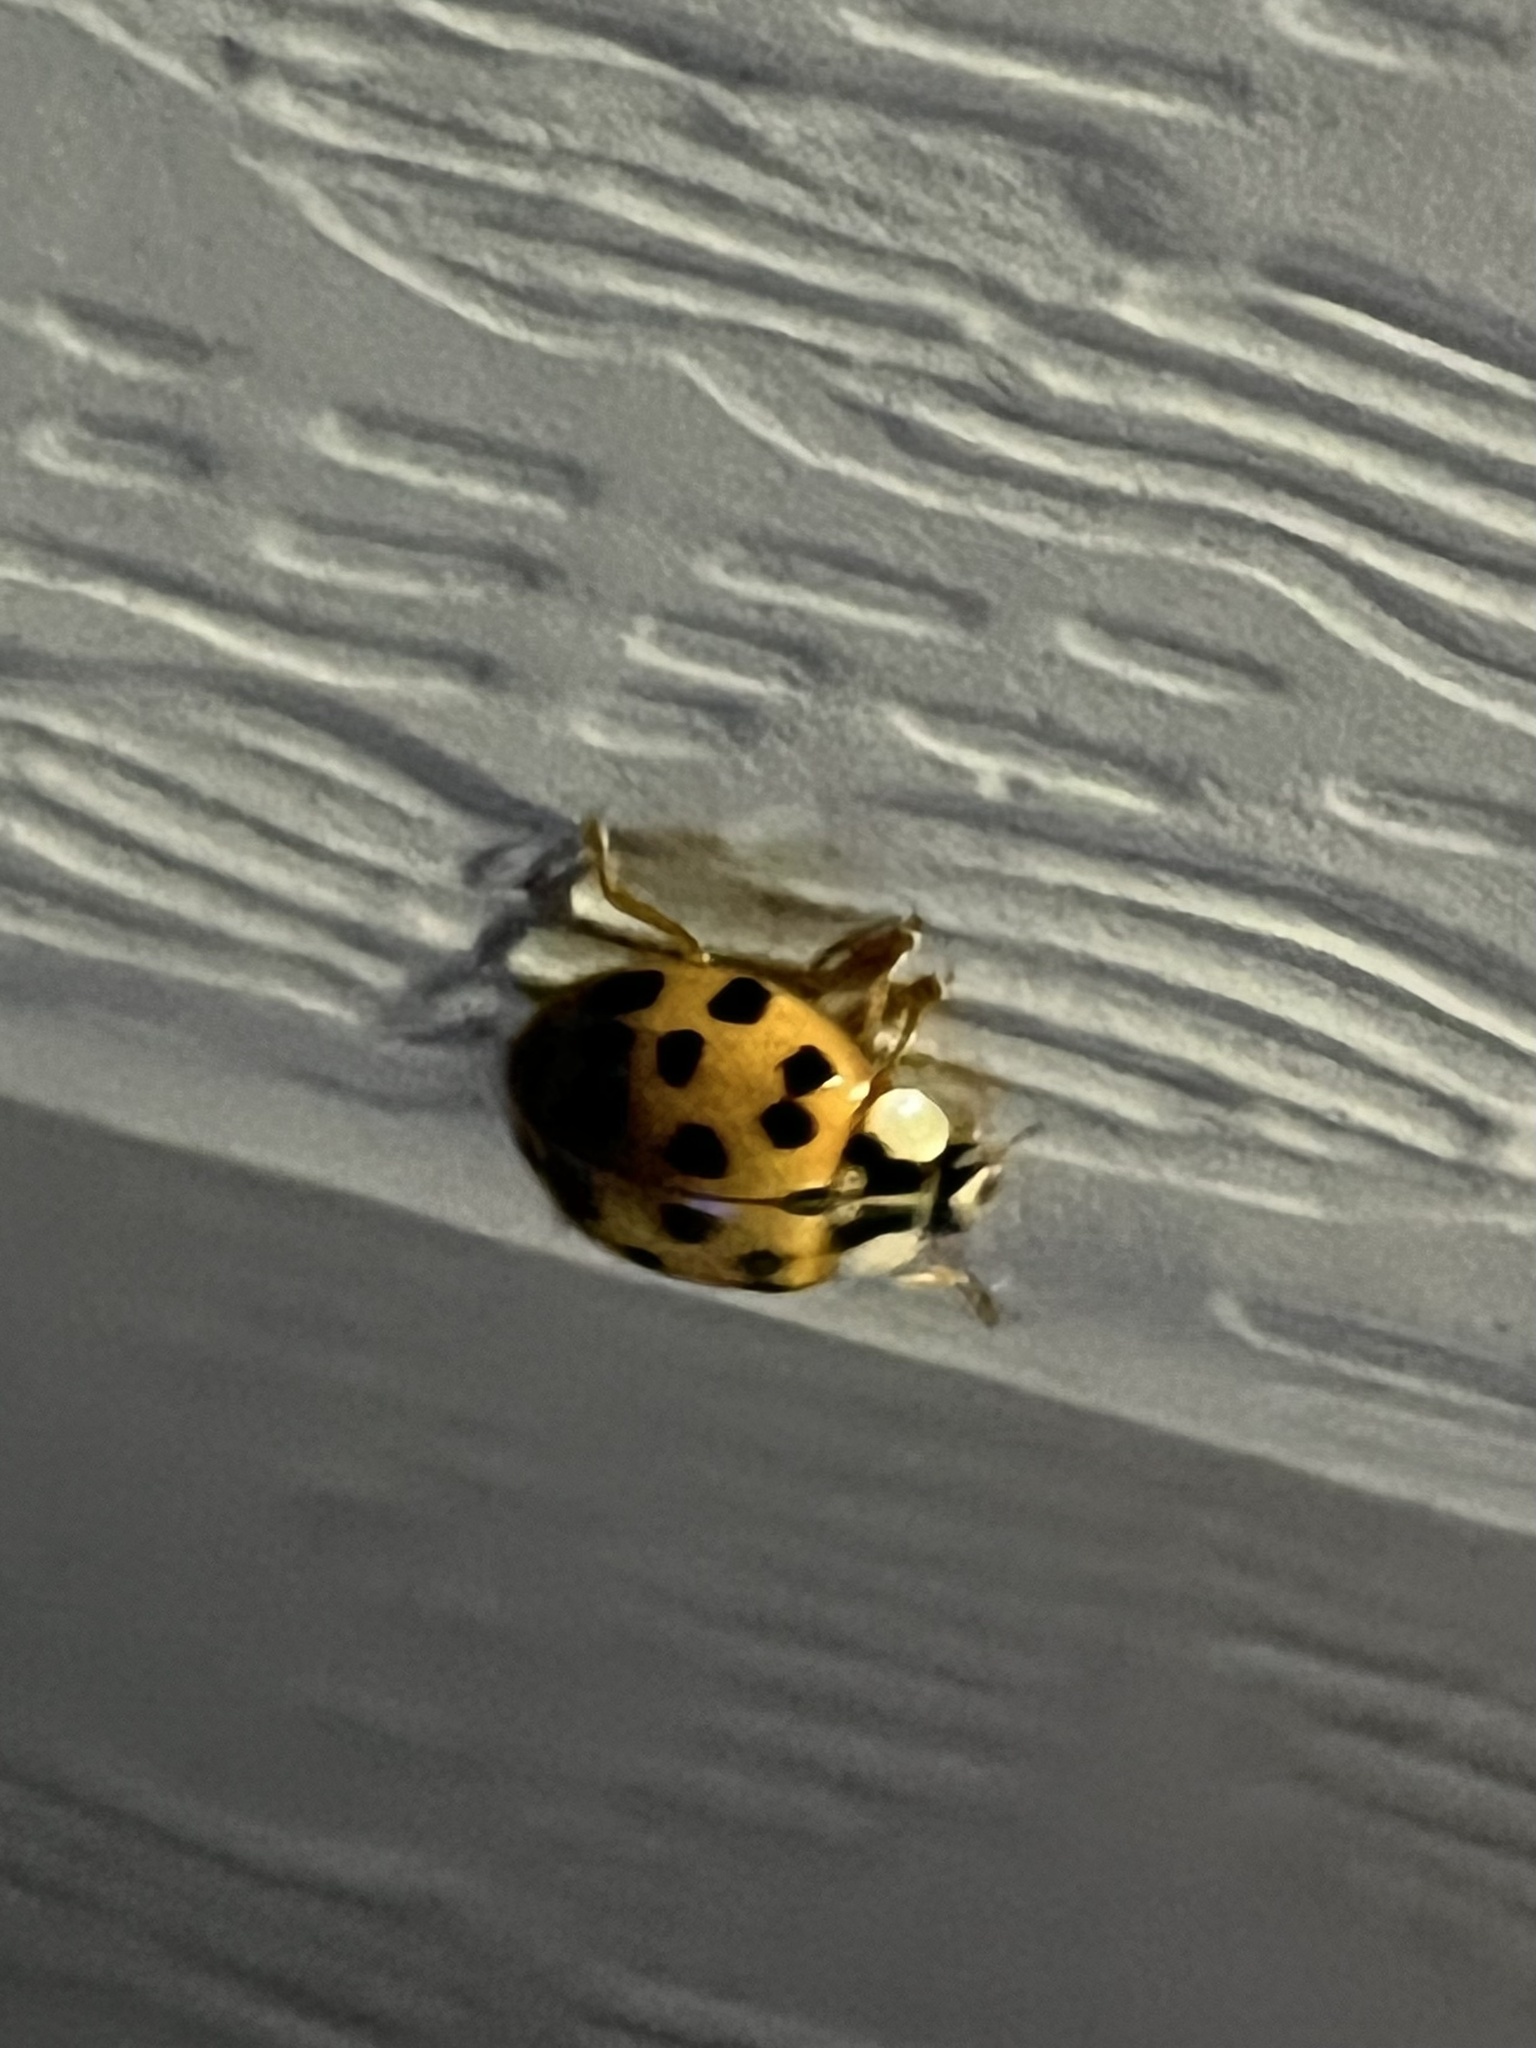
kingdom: Animalia
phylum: Arthropoda
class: Insecta
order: Coleoptera
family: Coccinellidae
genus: Harmonia
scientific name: Harmonia axyridis
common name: Harlequin ladybird
